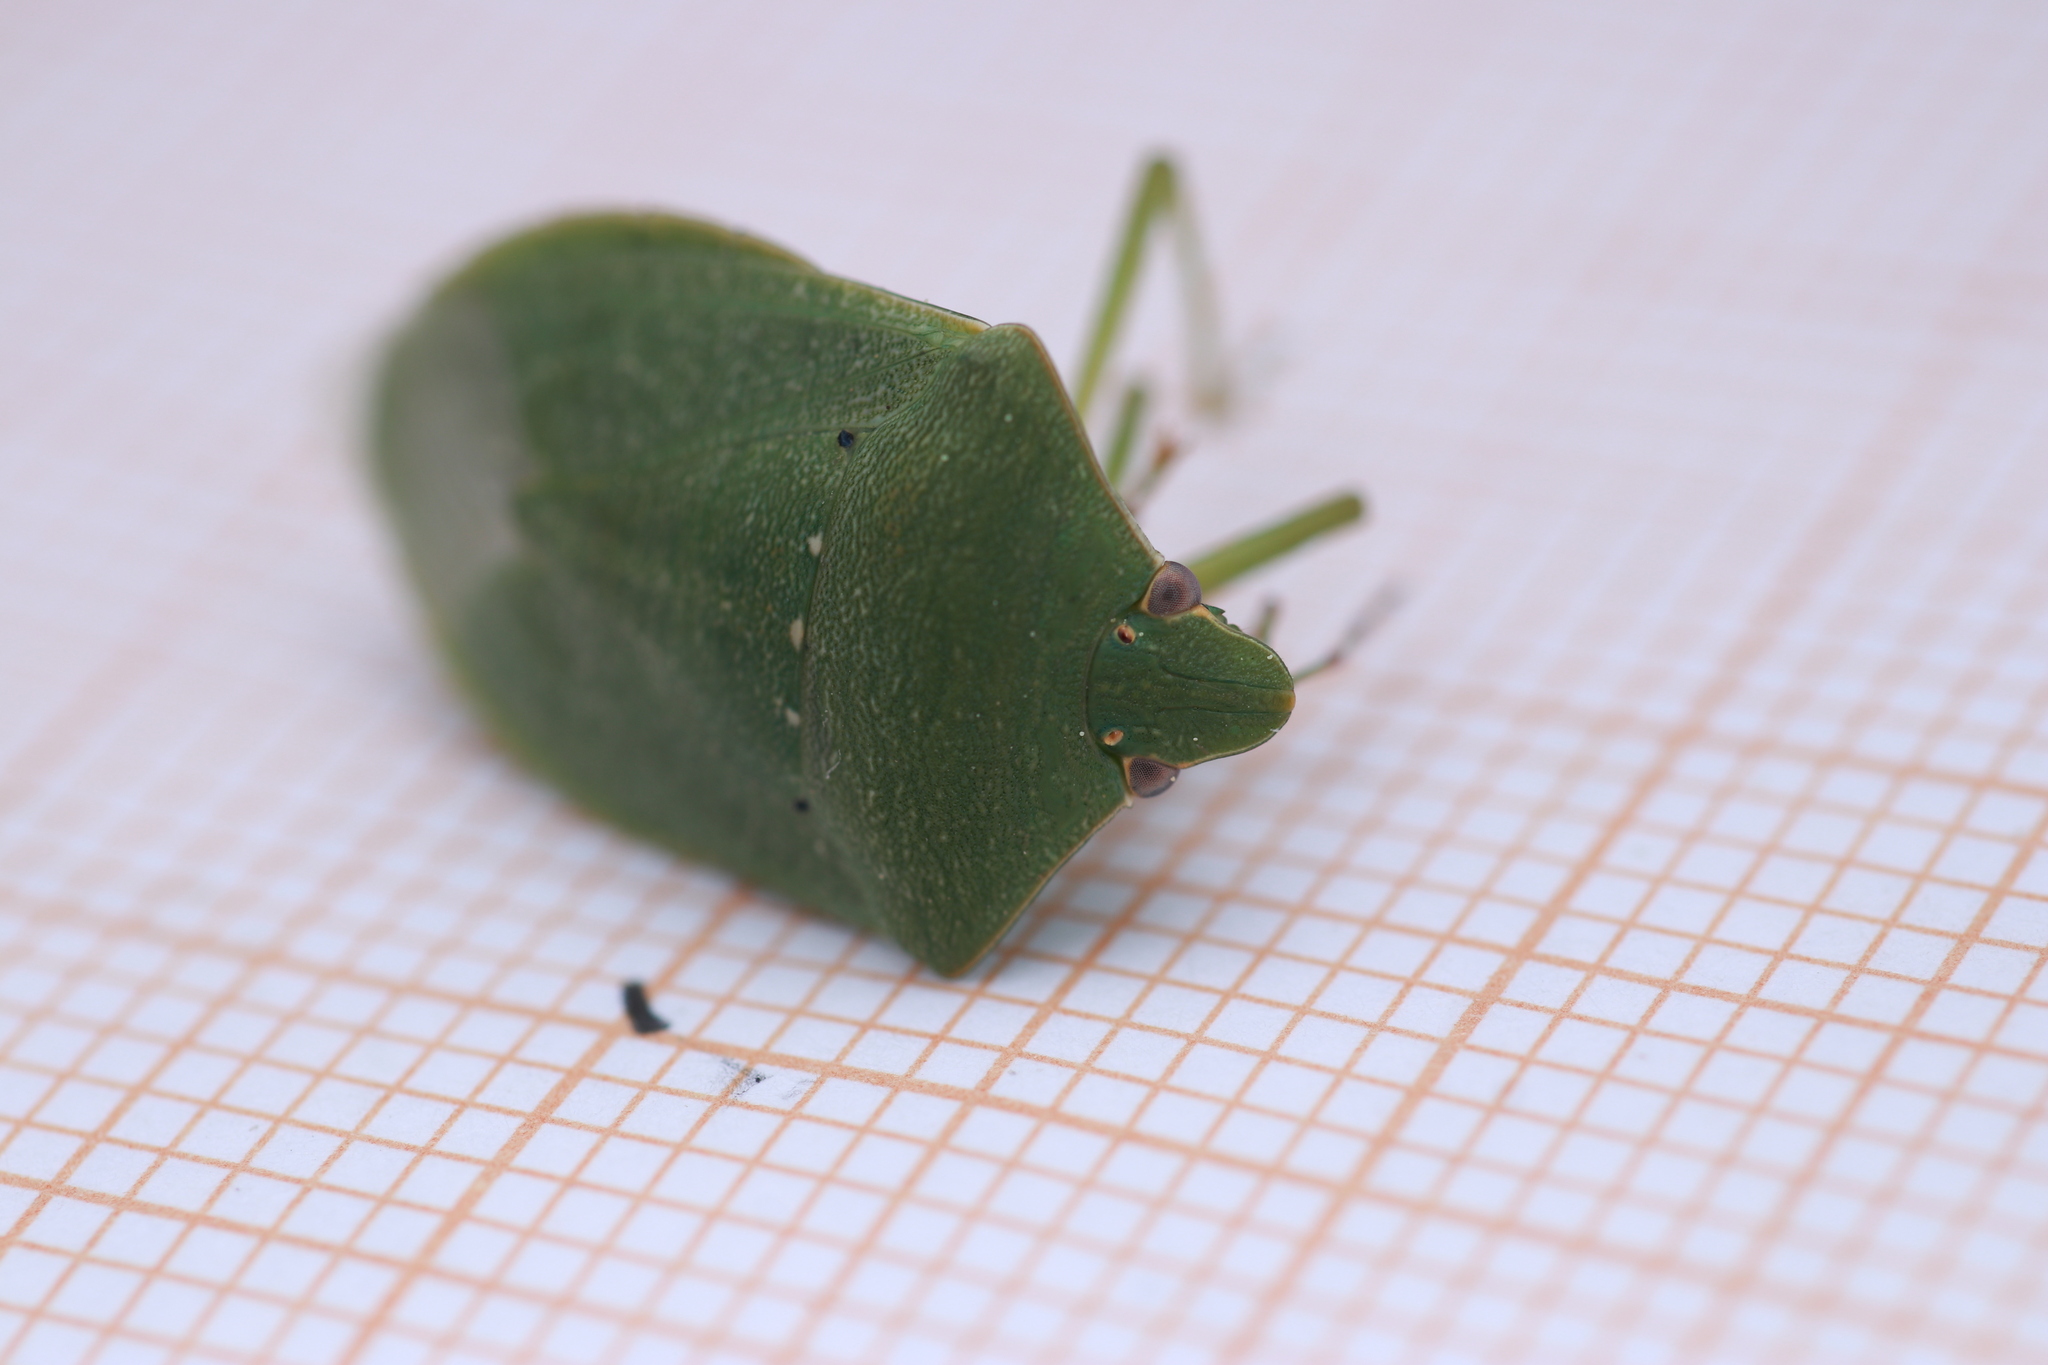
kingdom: Animalia
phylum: Arthropoda
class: Insecta
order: Hemiptera
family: Pentatomidae
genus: Nezara
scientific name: Nezara viridula
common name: Southern green stink bug
